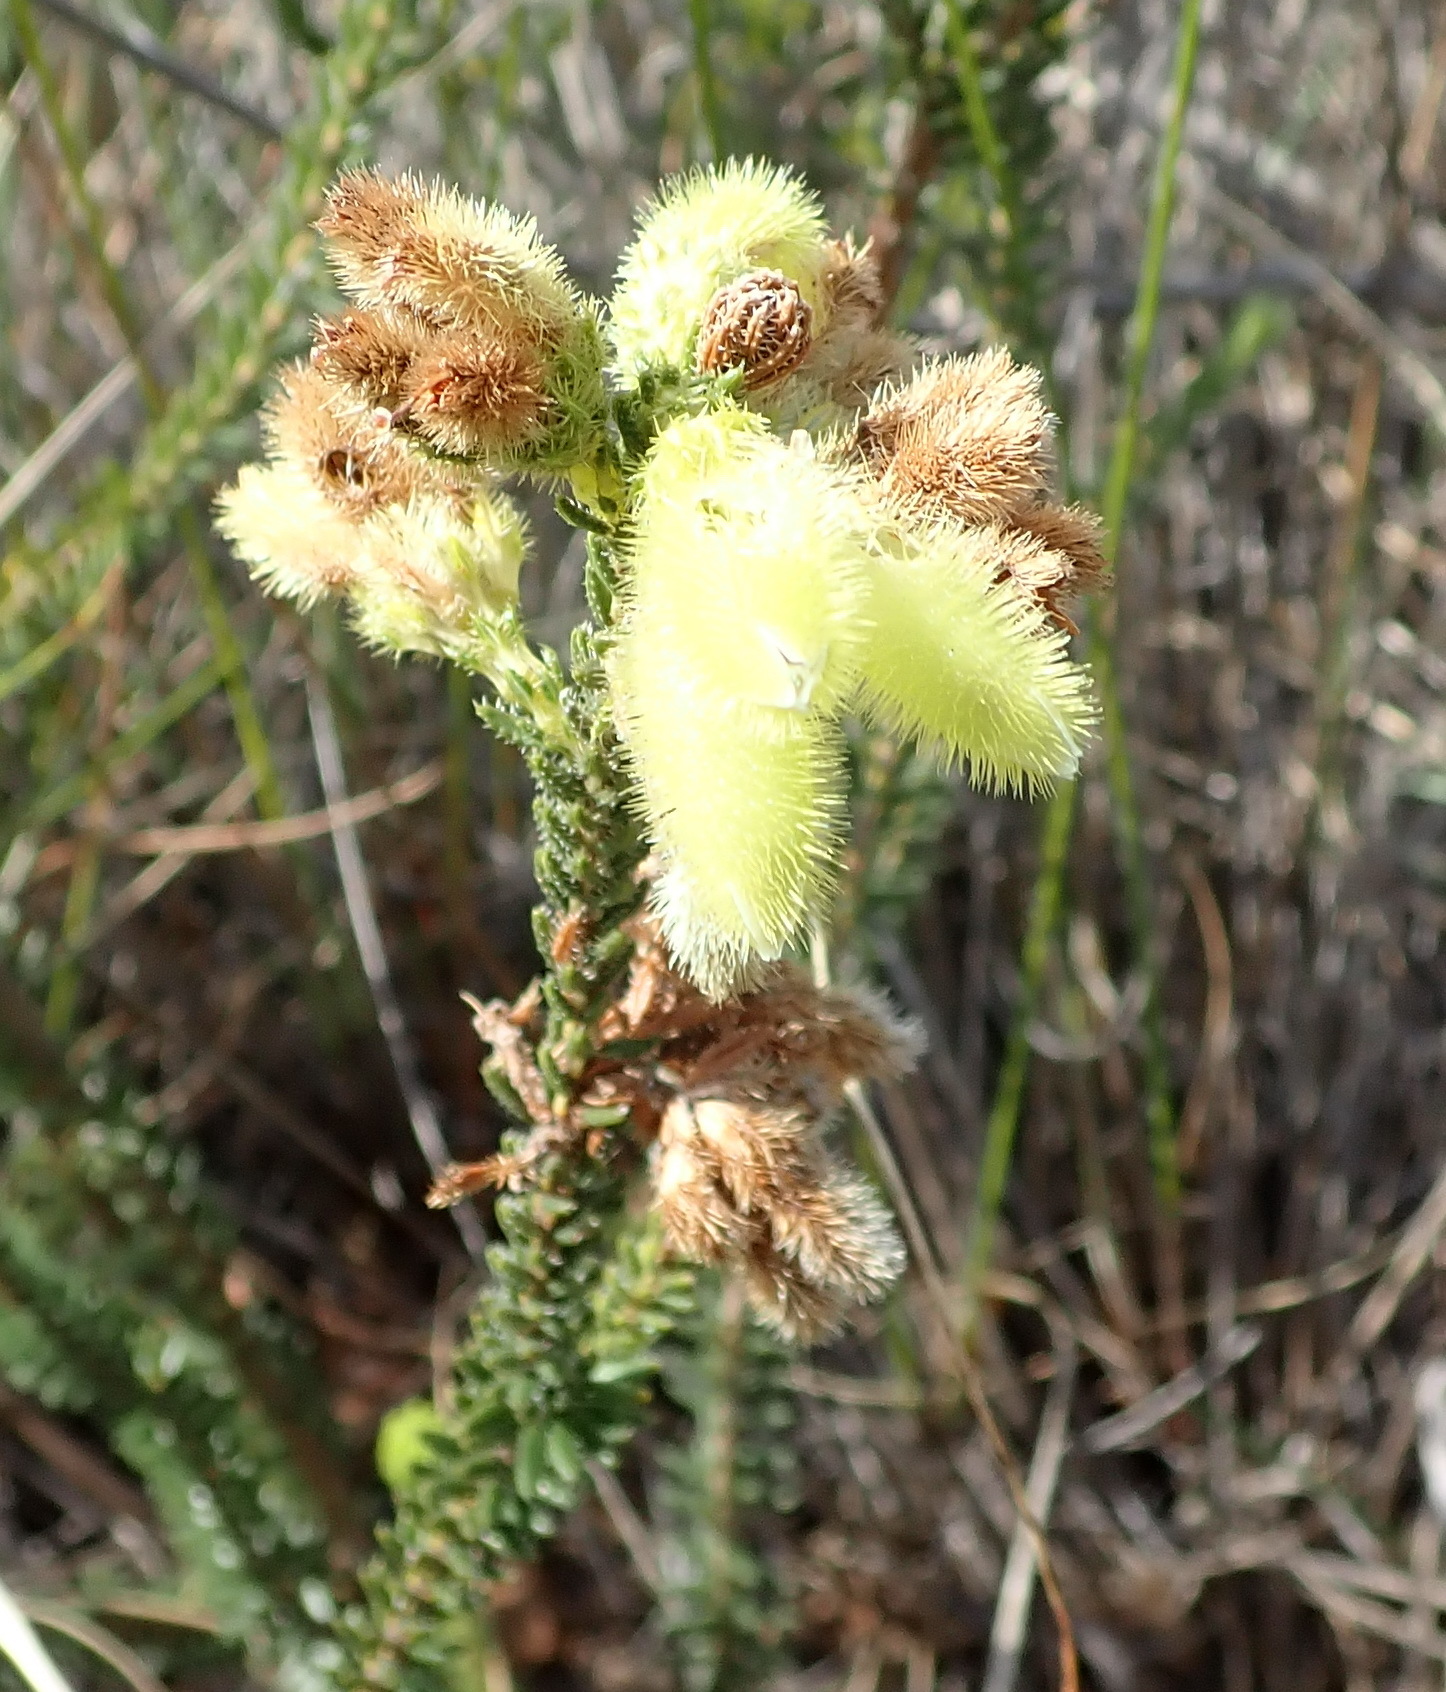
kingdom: Plantae
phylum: Tracheophyta
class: Magnoliopsida
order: Ericales
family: Ericaceae
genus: Erica
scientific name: Erica sparmannii
